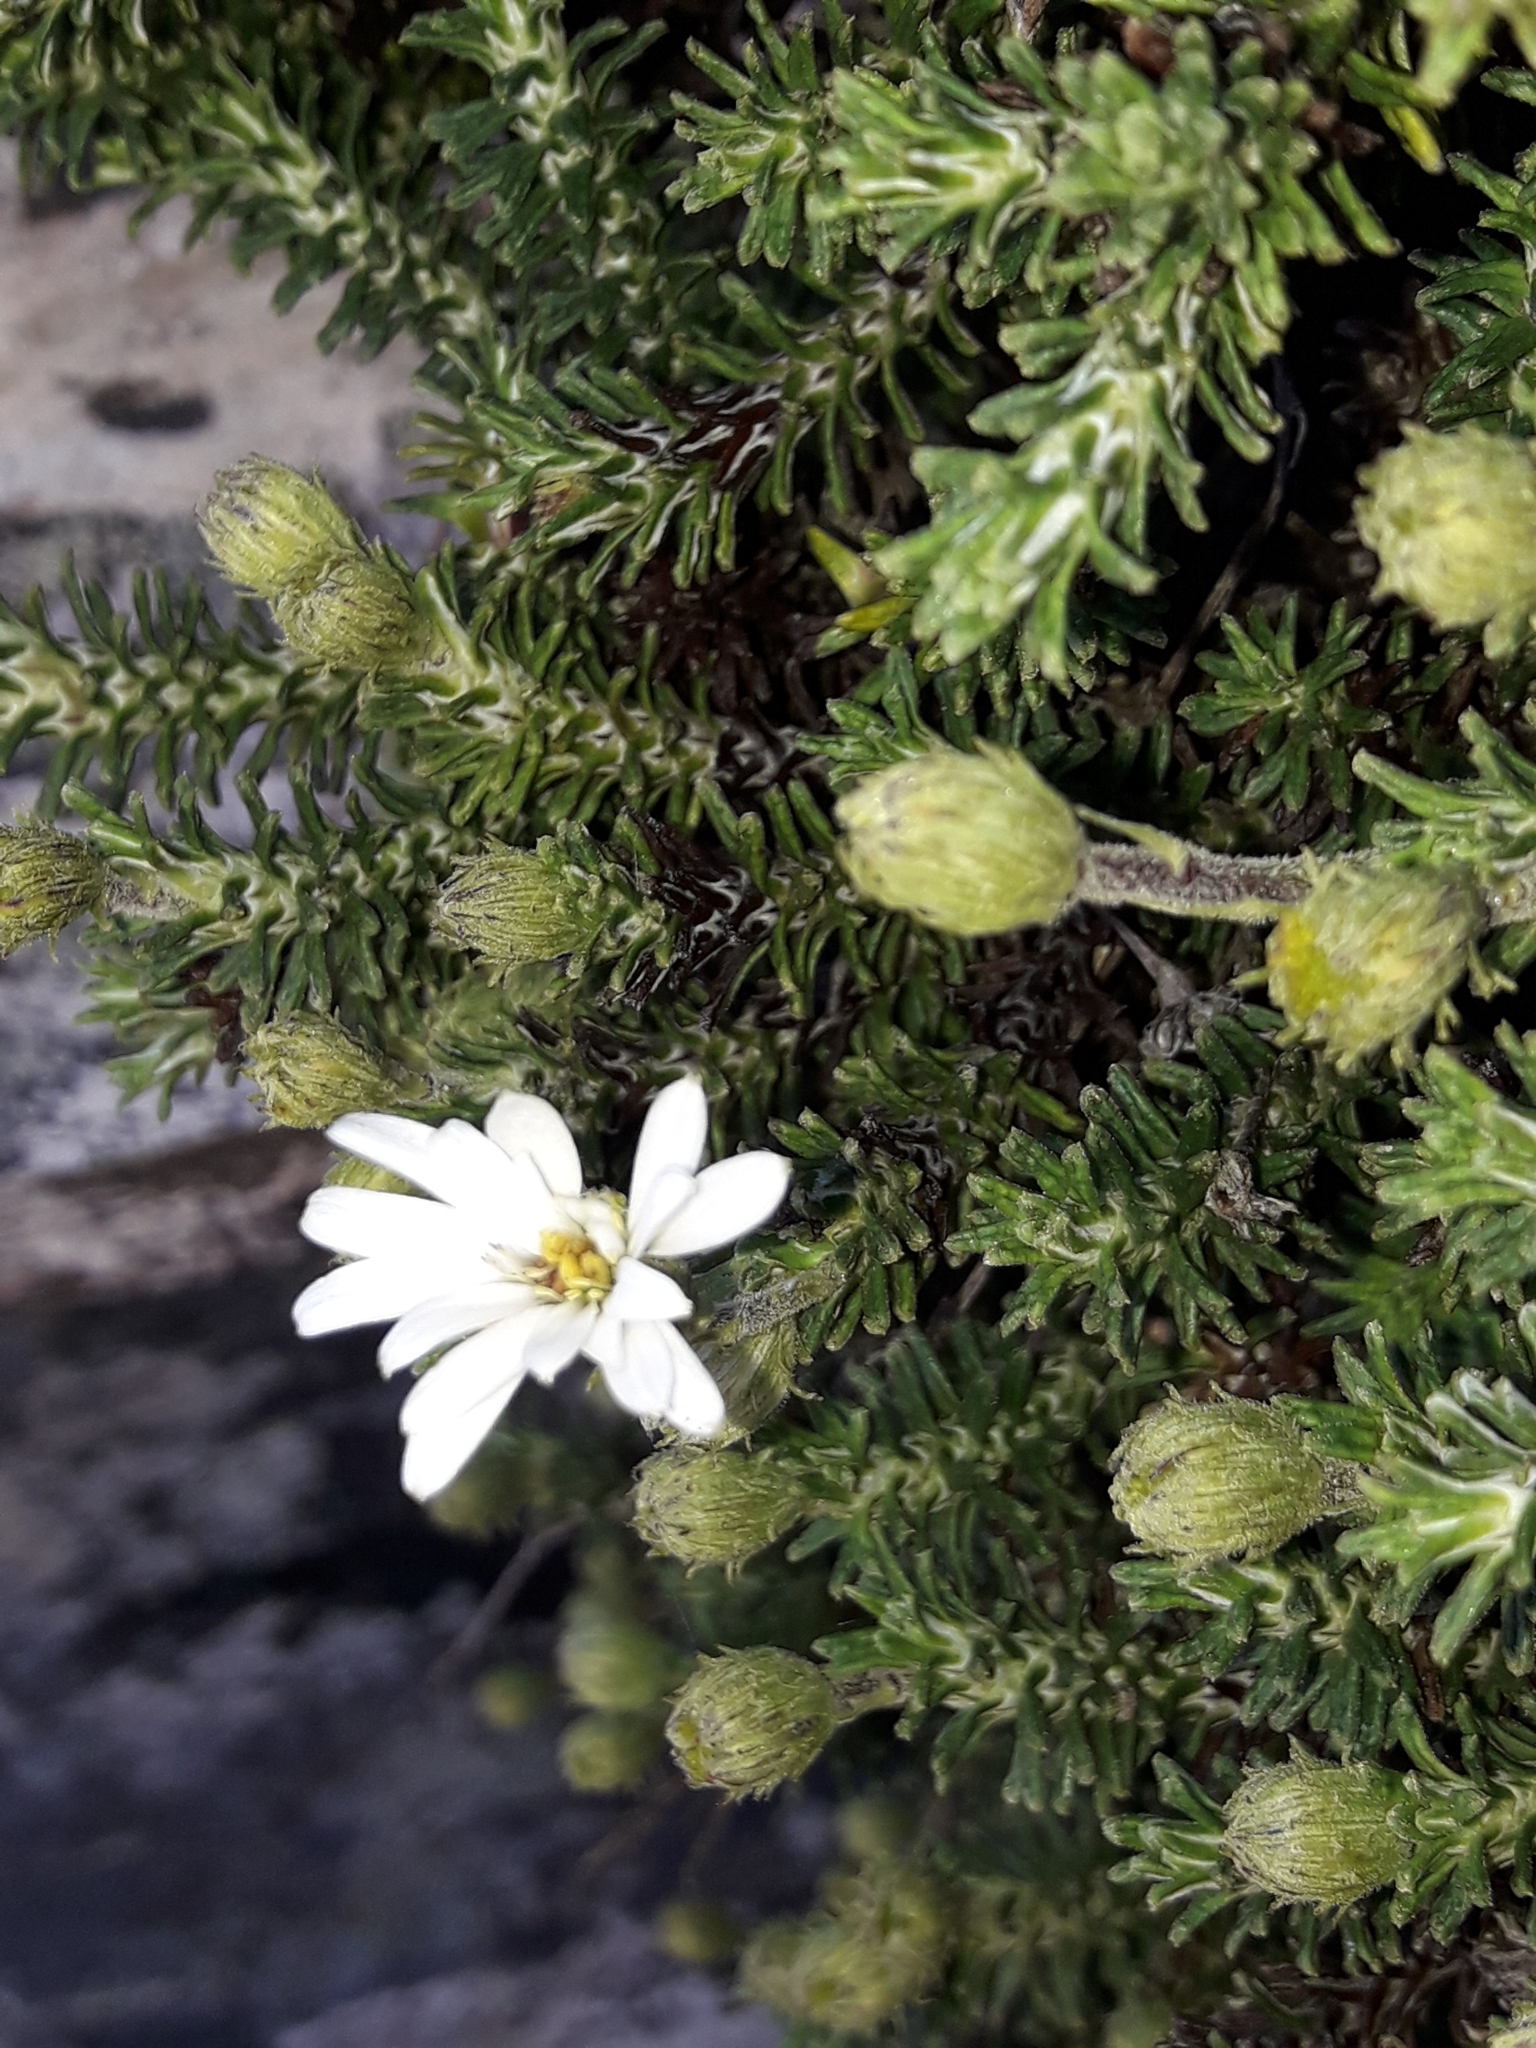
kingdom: Plantae
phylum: Tracheophyta
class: Magnoliopsida
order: Asterales
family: Asteraceae
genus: Celmisia
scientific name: Celmisia ramulosa
